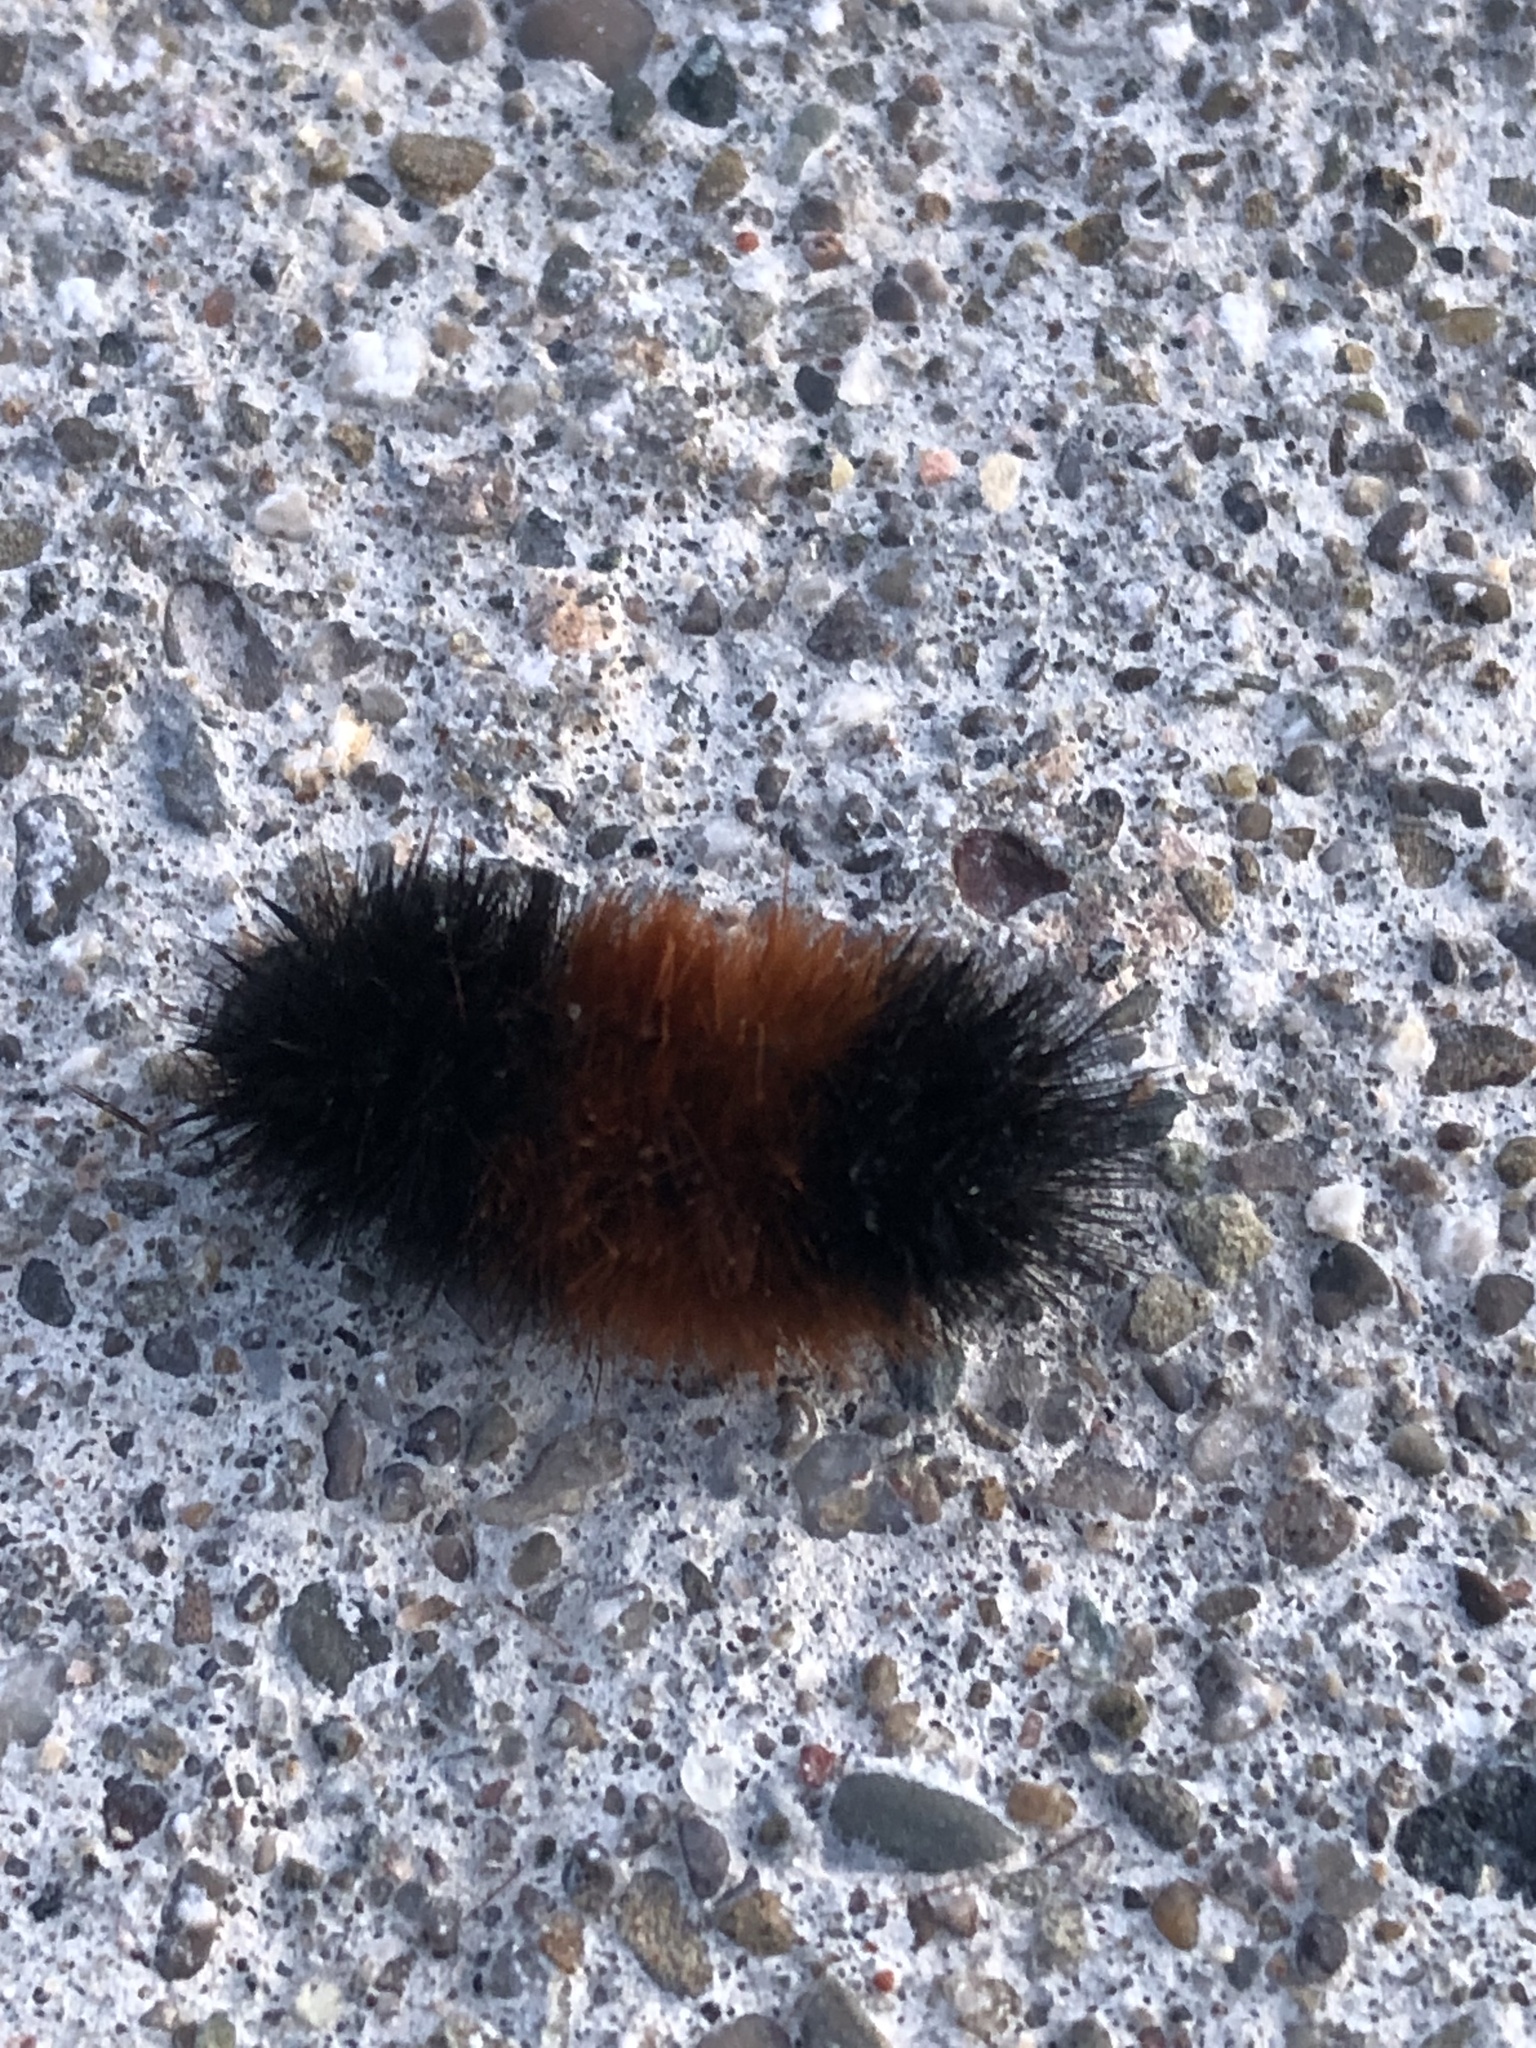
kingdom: Animalia
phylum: Arthropoda
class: Insecta
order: Lepidoptera
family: Erebidae
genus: Pyrrharctia
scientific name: Pyrrharctia isabella
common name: Isabella tiger moth
